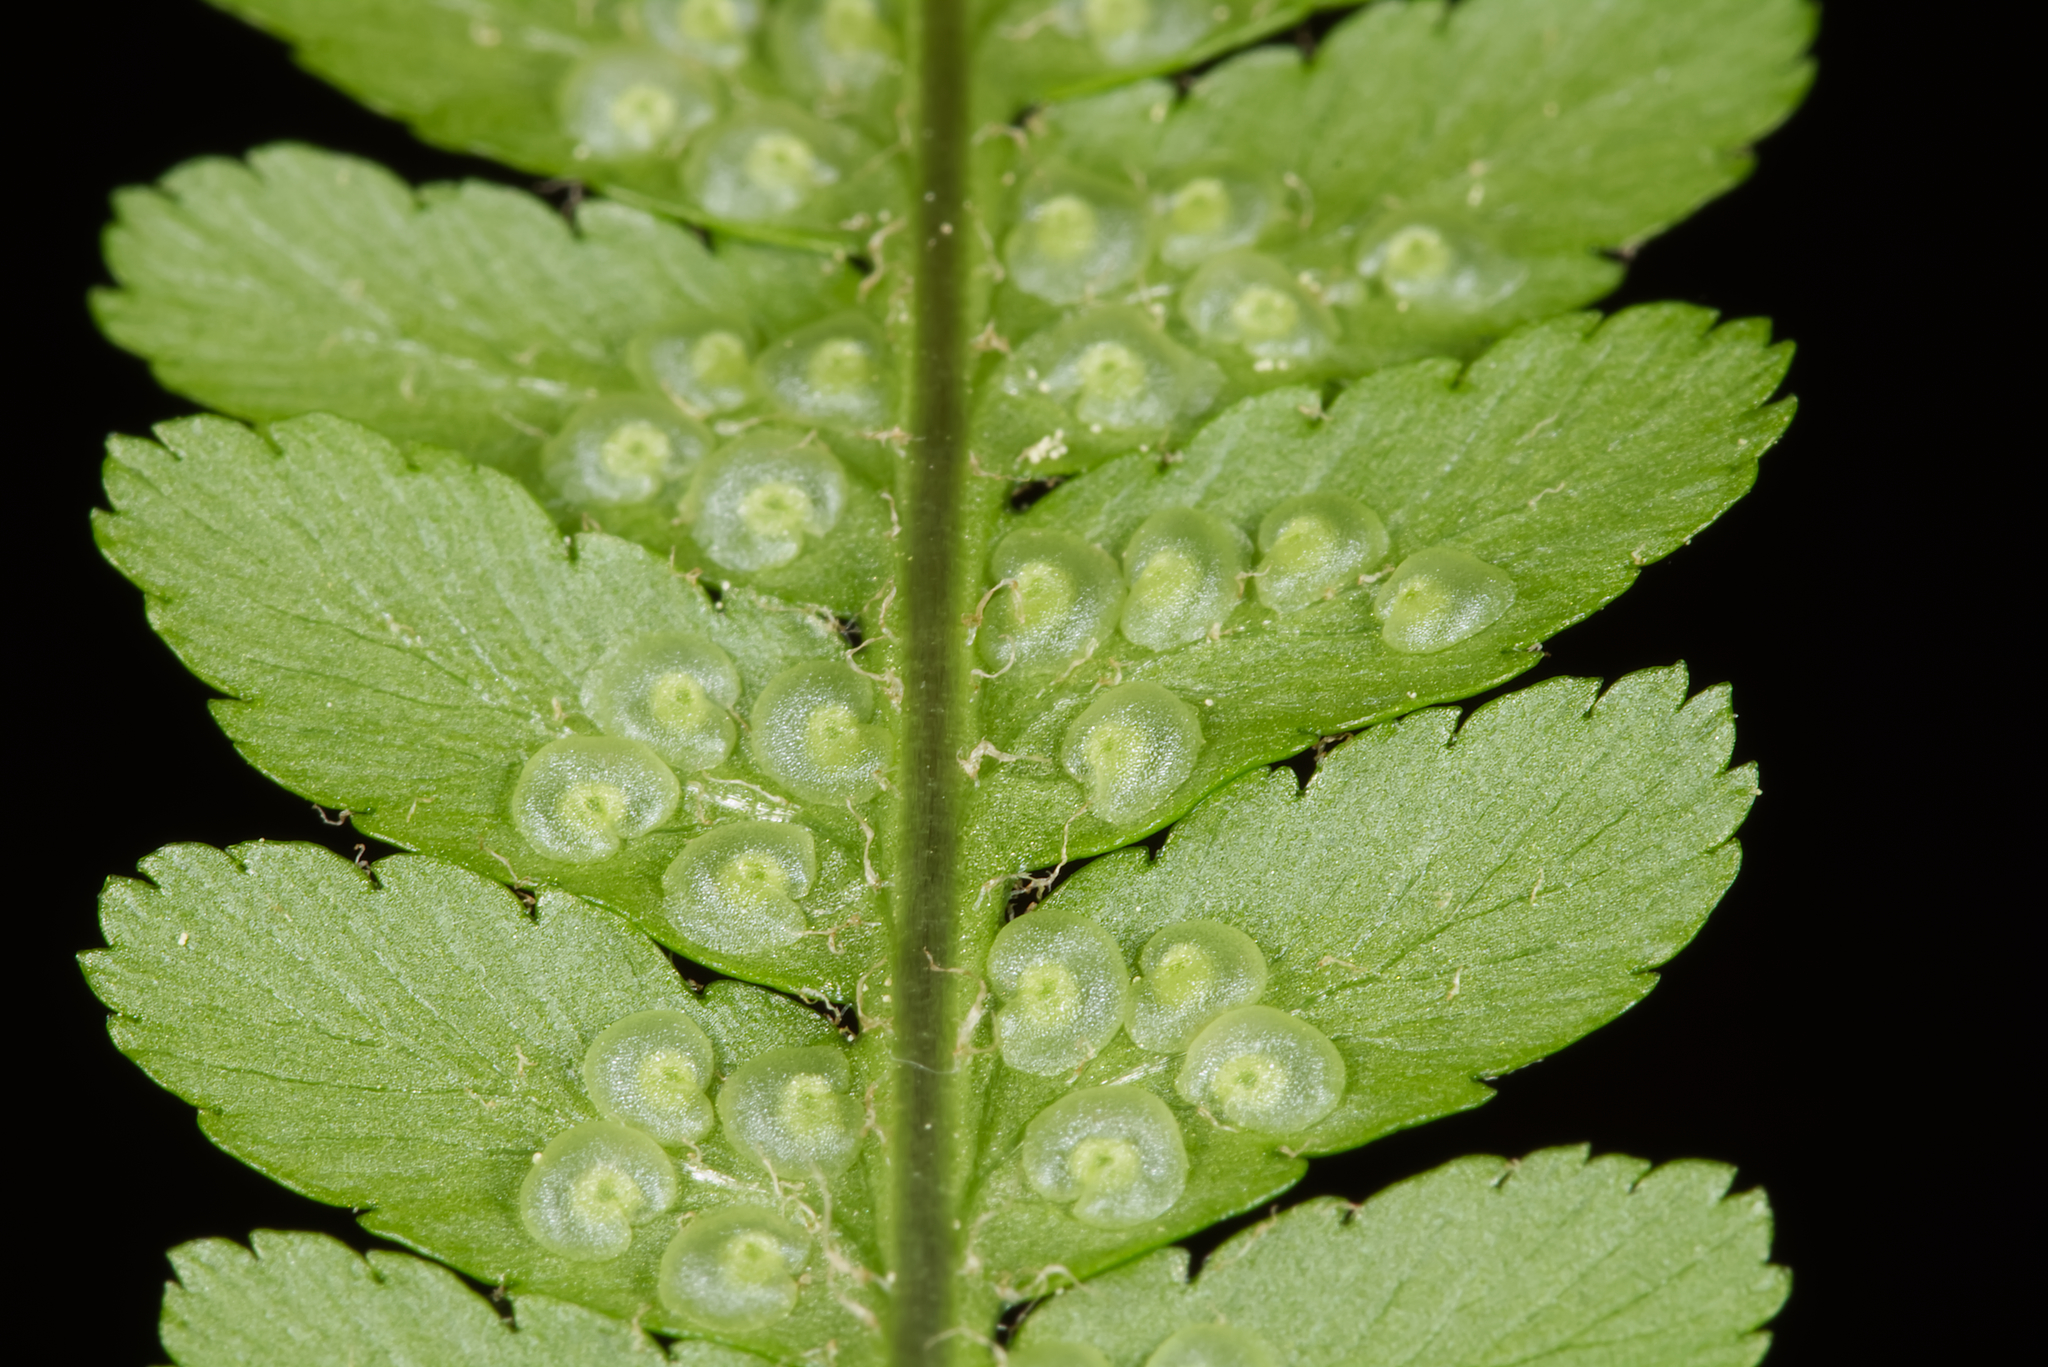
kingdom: Plantae
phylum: Tracheophyta
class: Polypodiopsida
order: Polypodiales
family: Dryopteridaceae
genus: Dryopteris
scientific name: Dryopteris filix-mas
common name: Male fern
